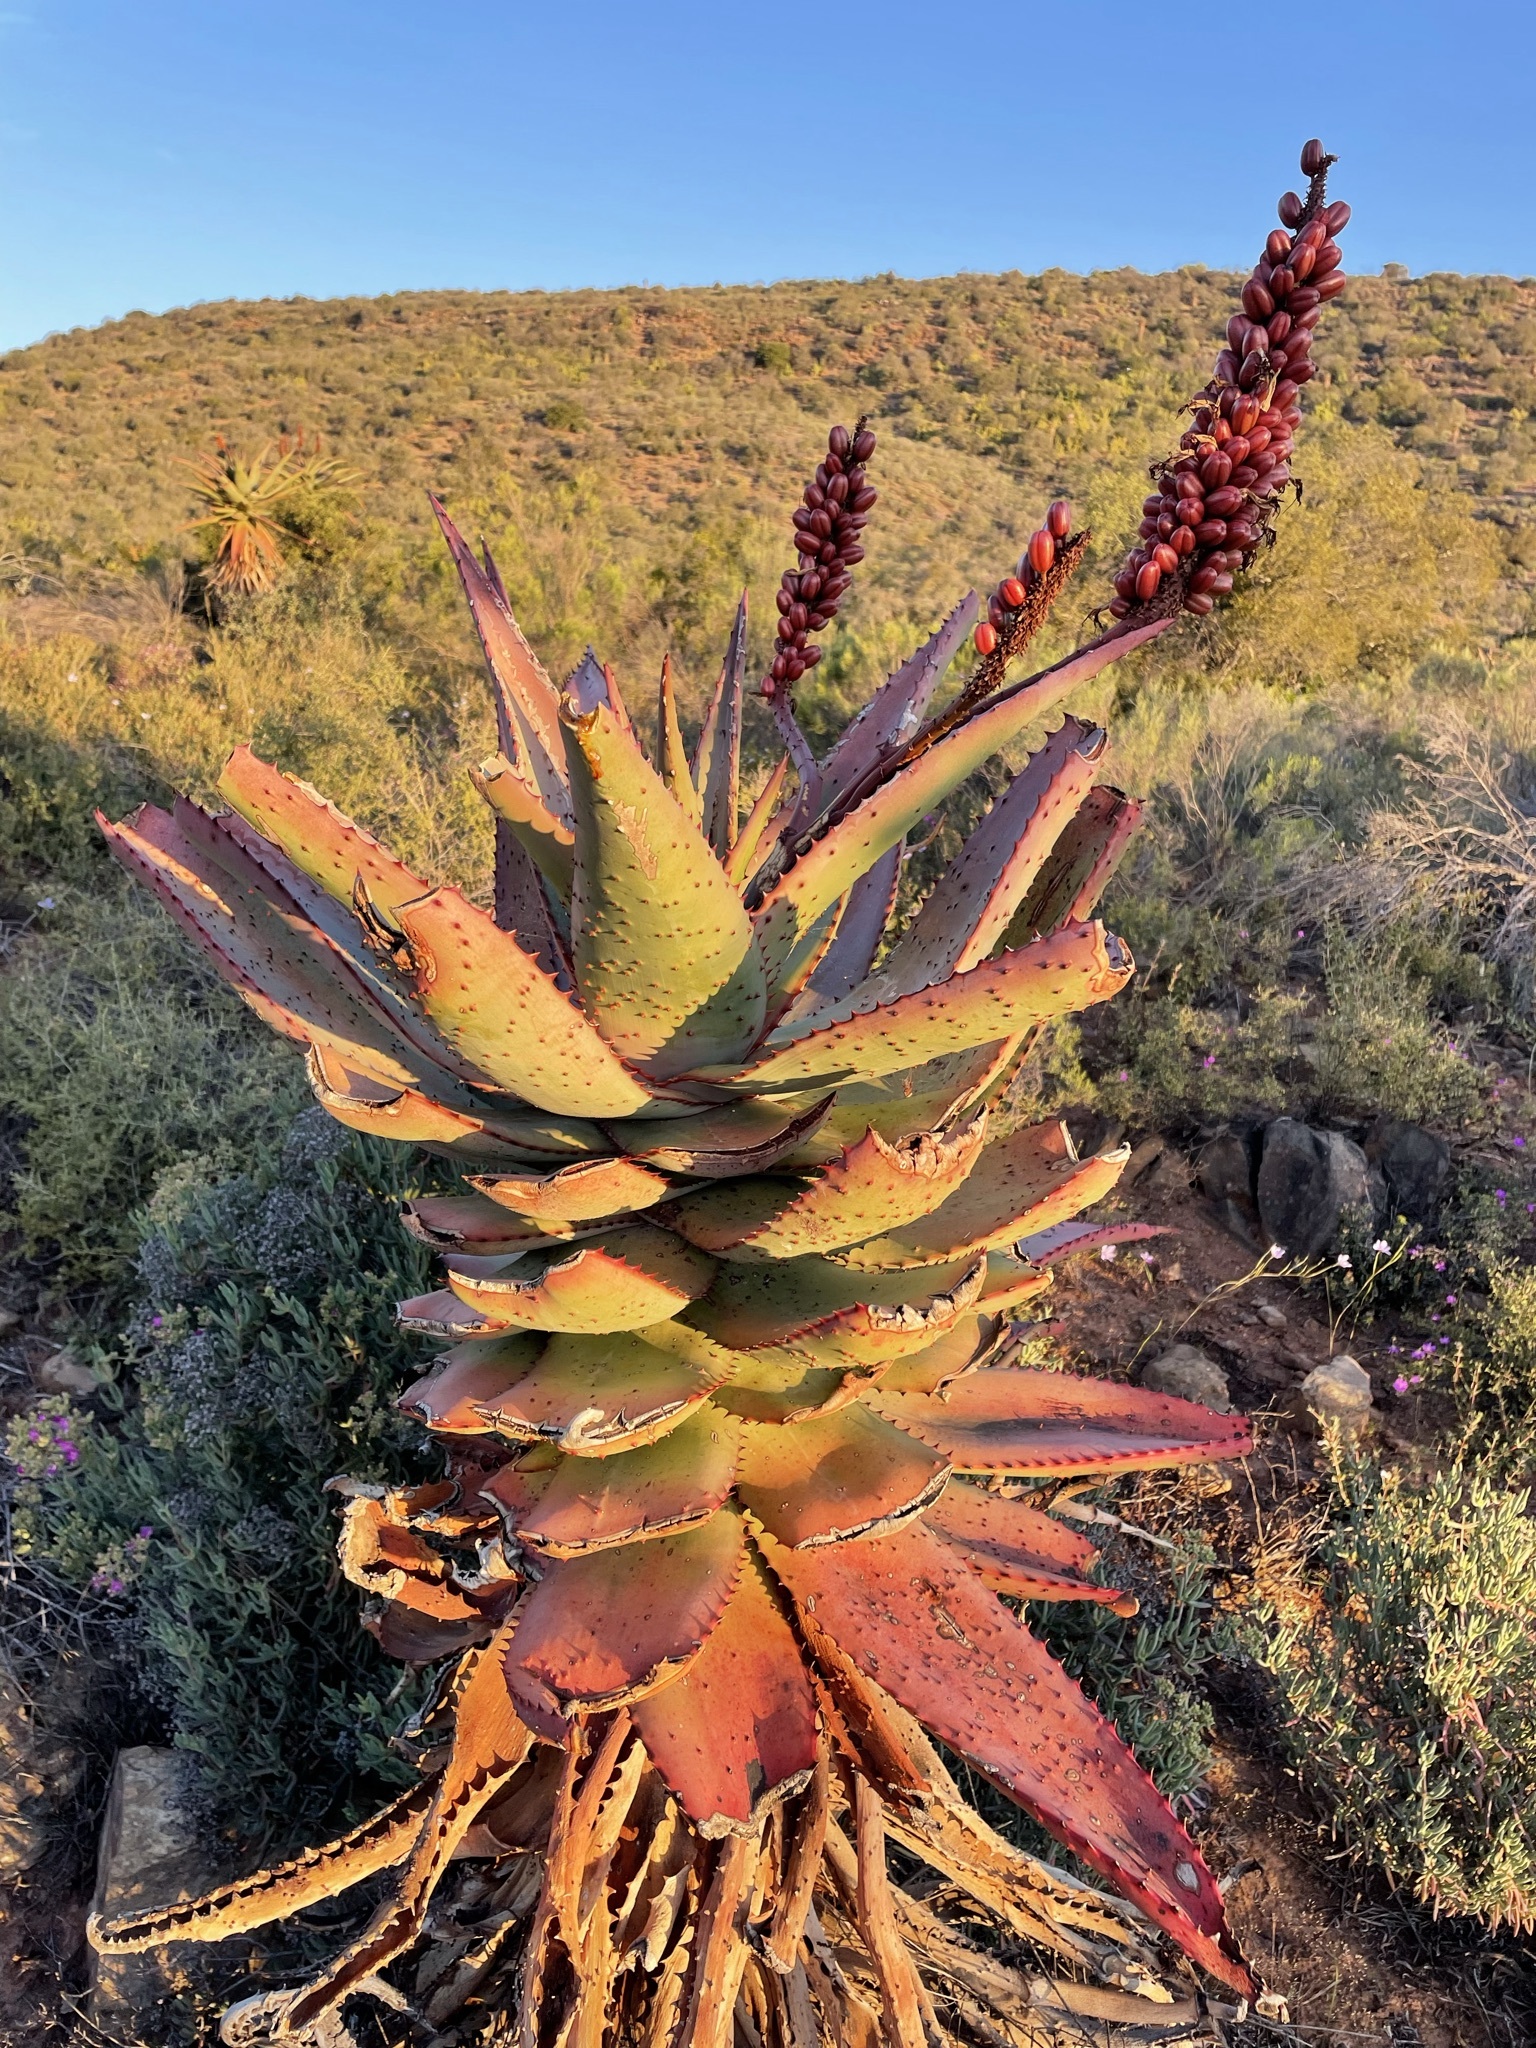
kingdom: Plantae
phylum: Tracheophyta
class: Liliopsida
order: Asparagales
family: Asphodelaceae
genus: Aloe
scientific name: Aloe ferox
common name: Bitter aloe
